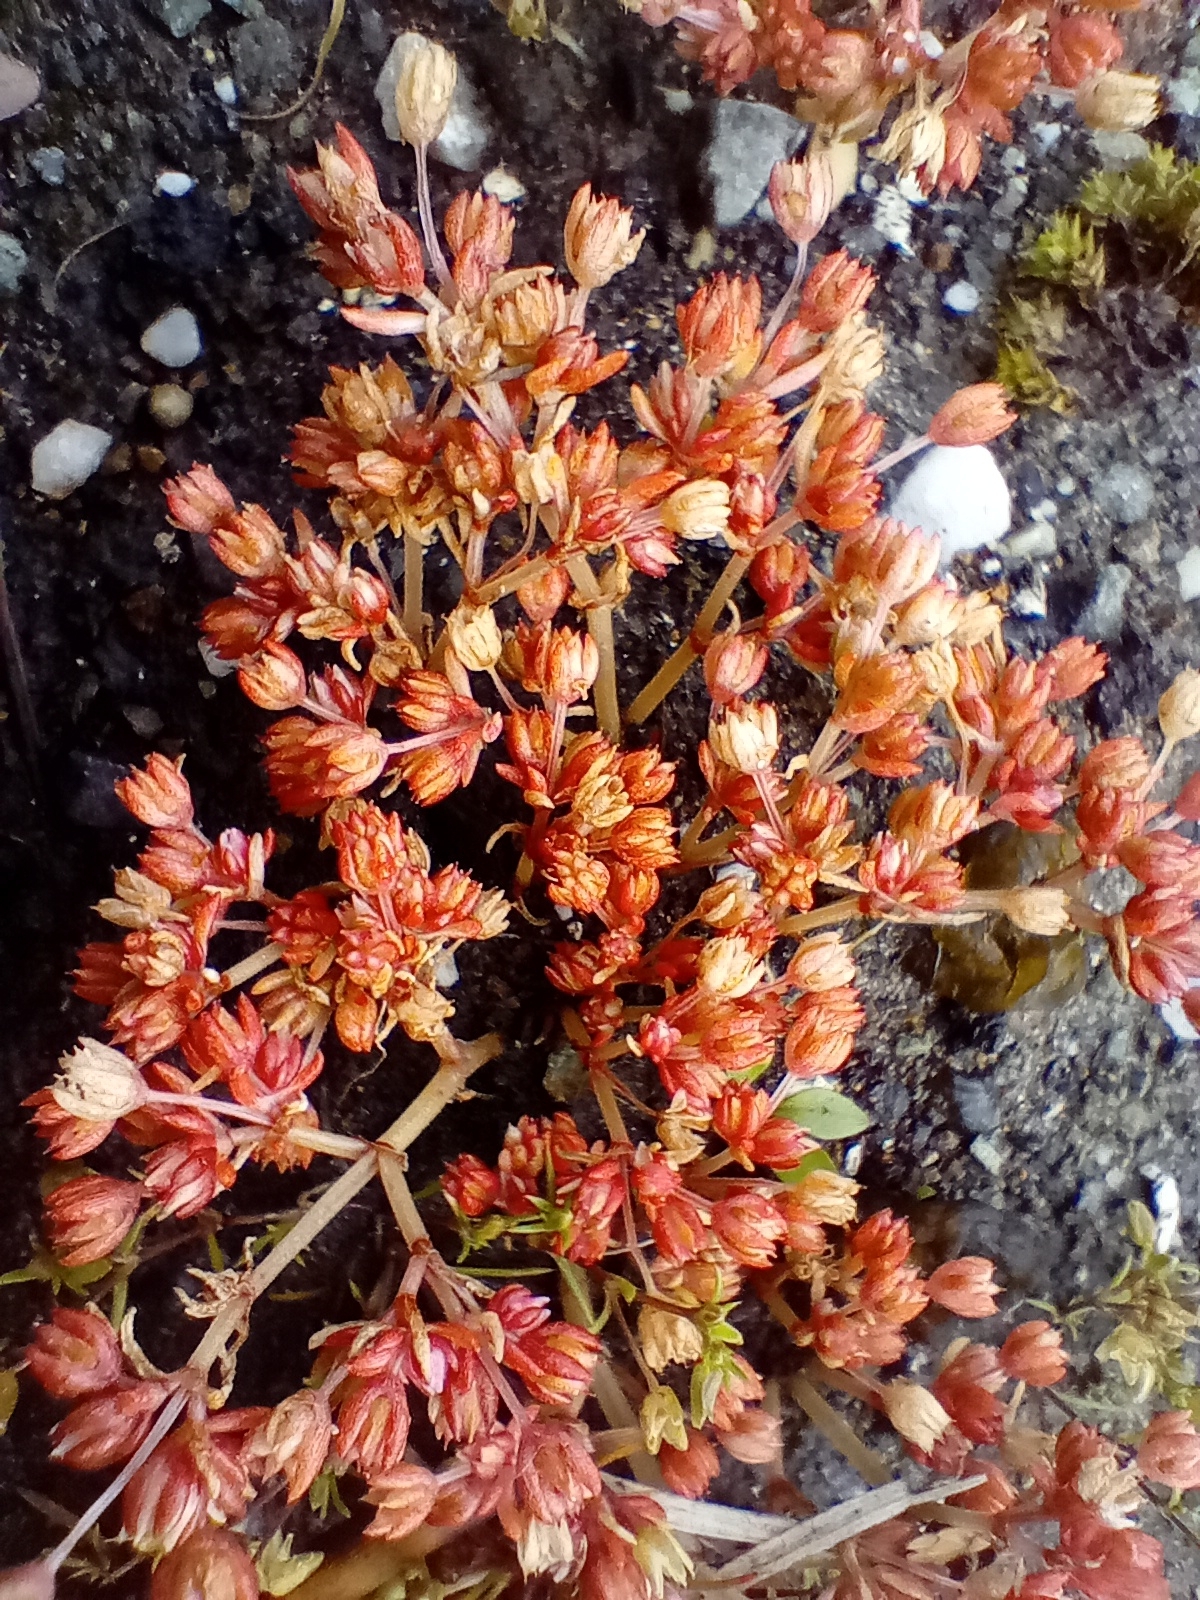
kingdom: Plantae
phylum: Tracheophyta
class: Magnoliopsida
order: Saxifragales
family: Crassulaceae
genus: Crassula
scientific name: Crassula decumbens
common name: Scilly pigmyweed
